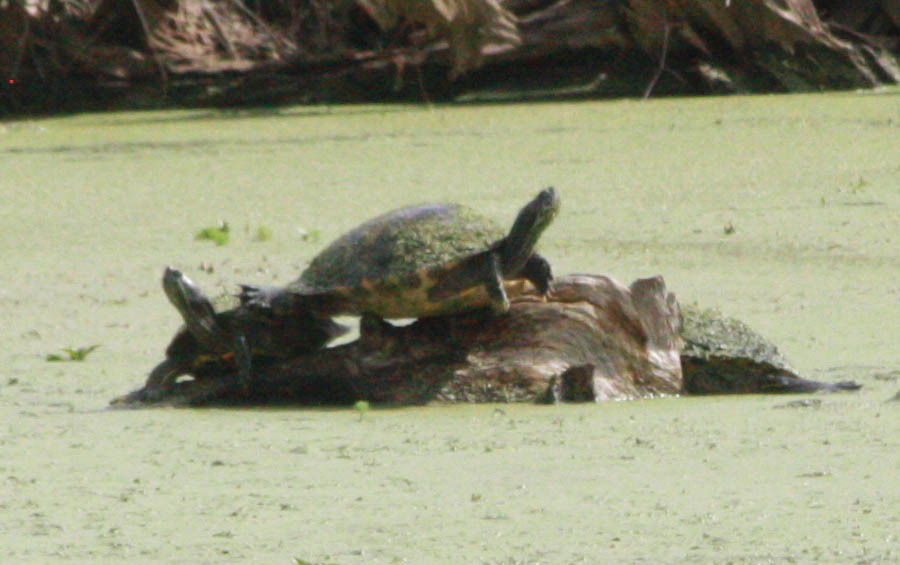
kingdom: Animalia
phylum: Chordata
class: Testudines
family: Emydidae
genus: Trachemys
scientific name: Trachemys scripta
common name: Slider
